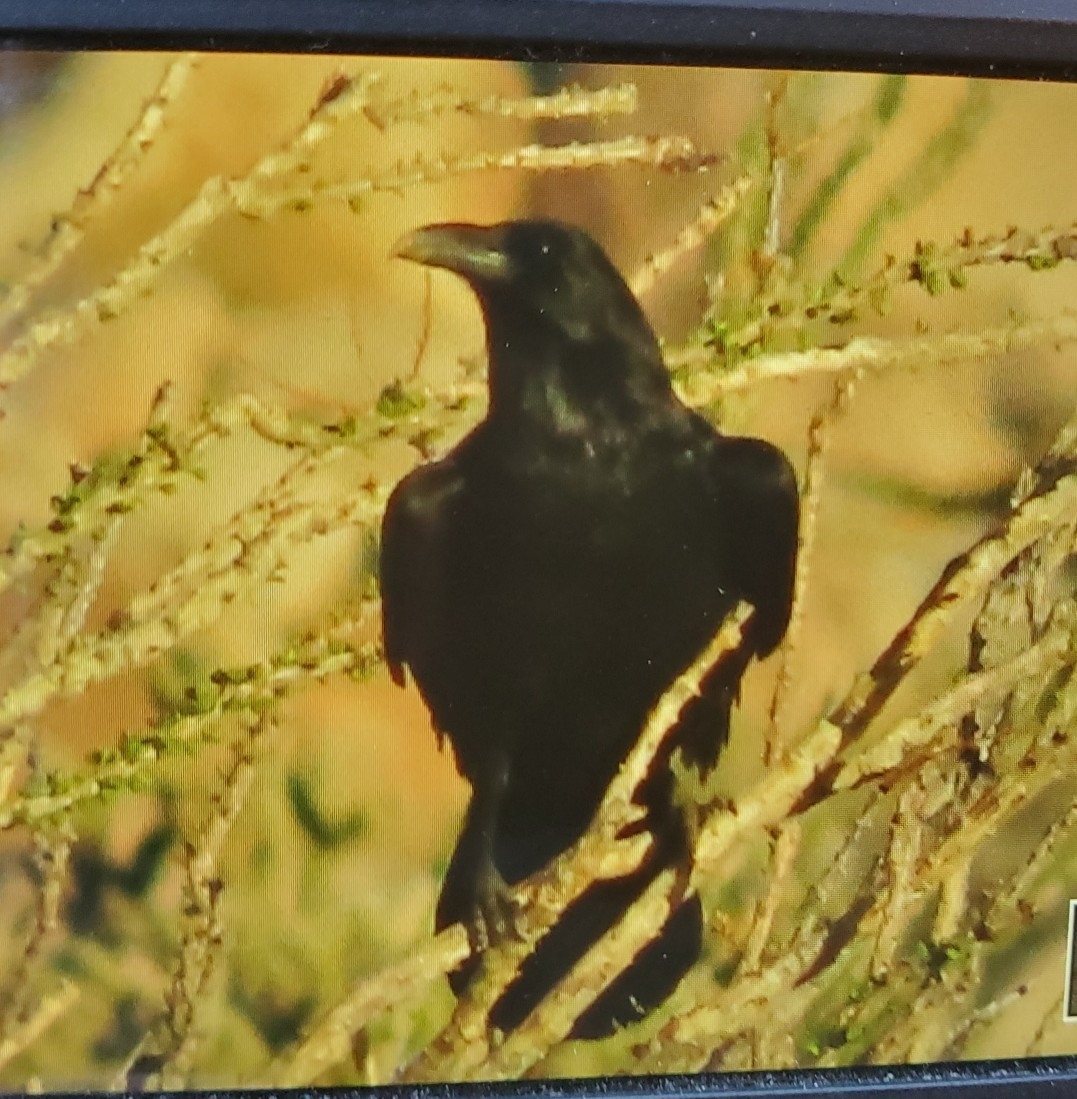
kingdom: Animalia
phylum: Chordata
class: Aves
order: Passeriformes
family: Corvidae
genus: Corvus
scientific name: Corvus corax
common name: Common raven
